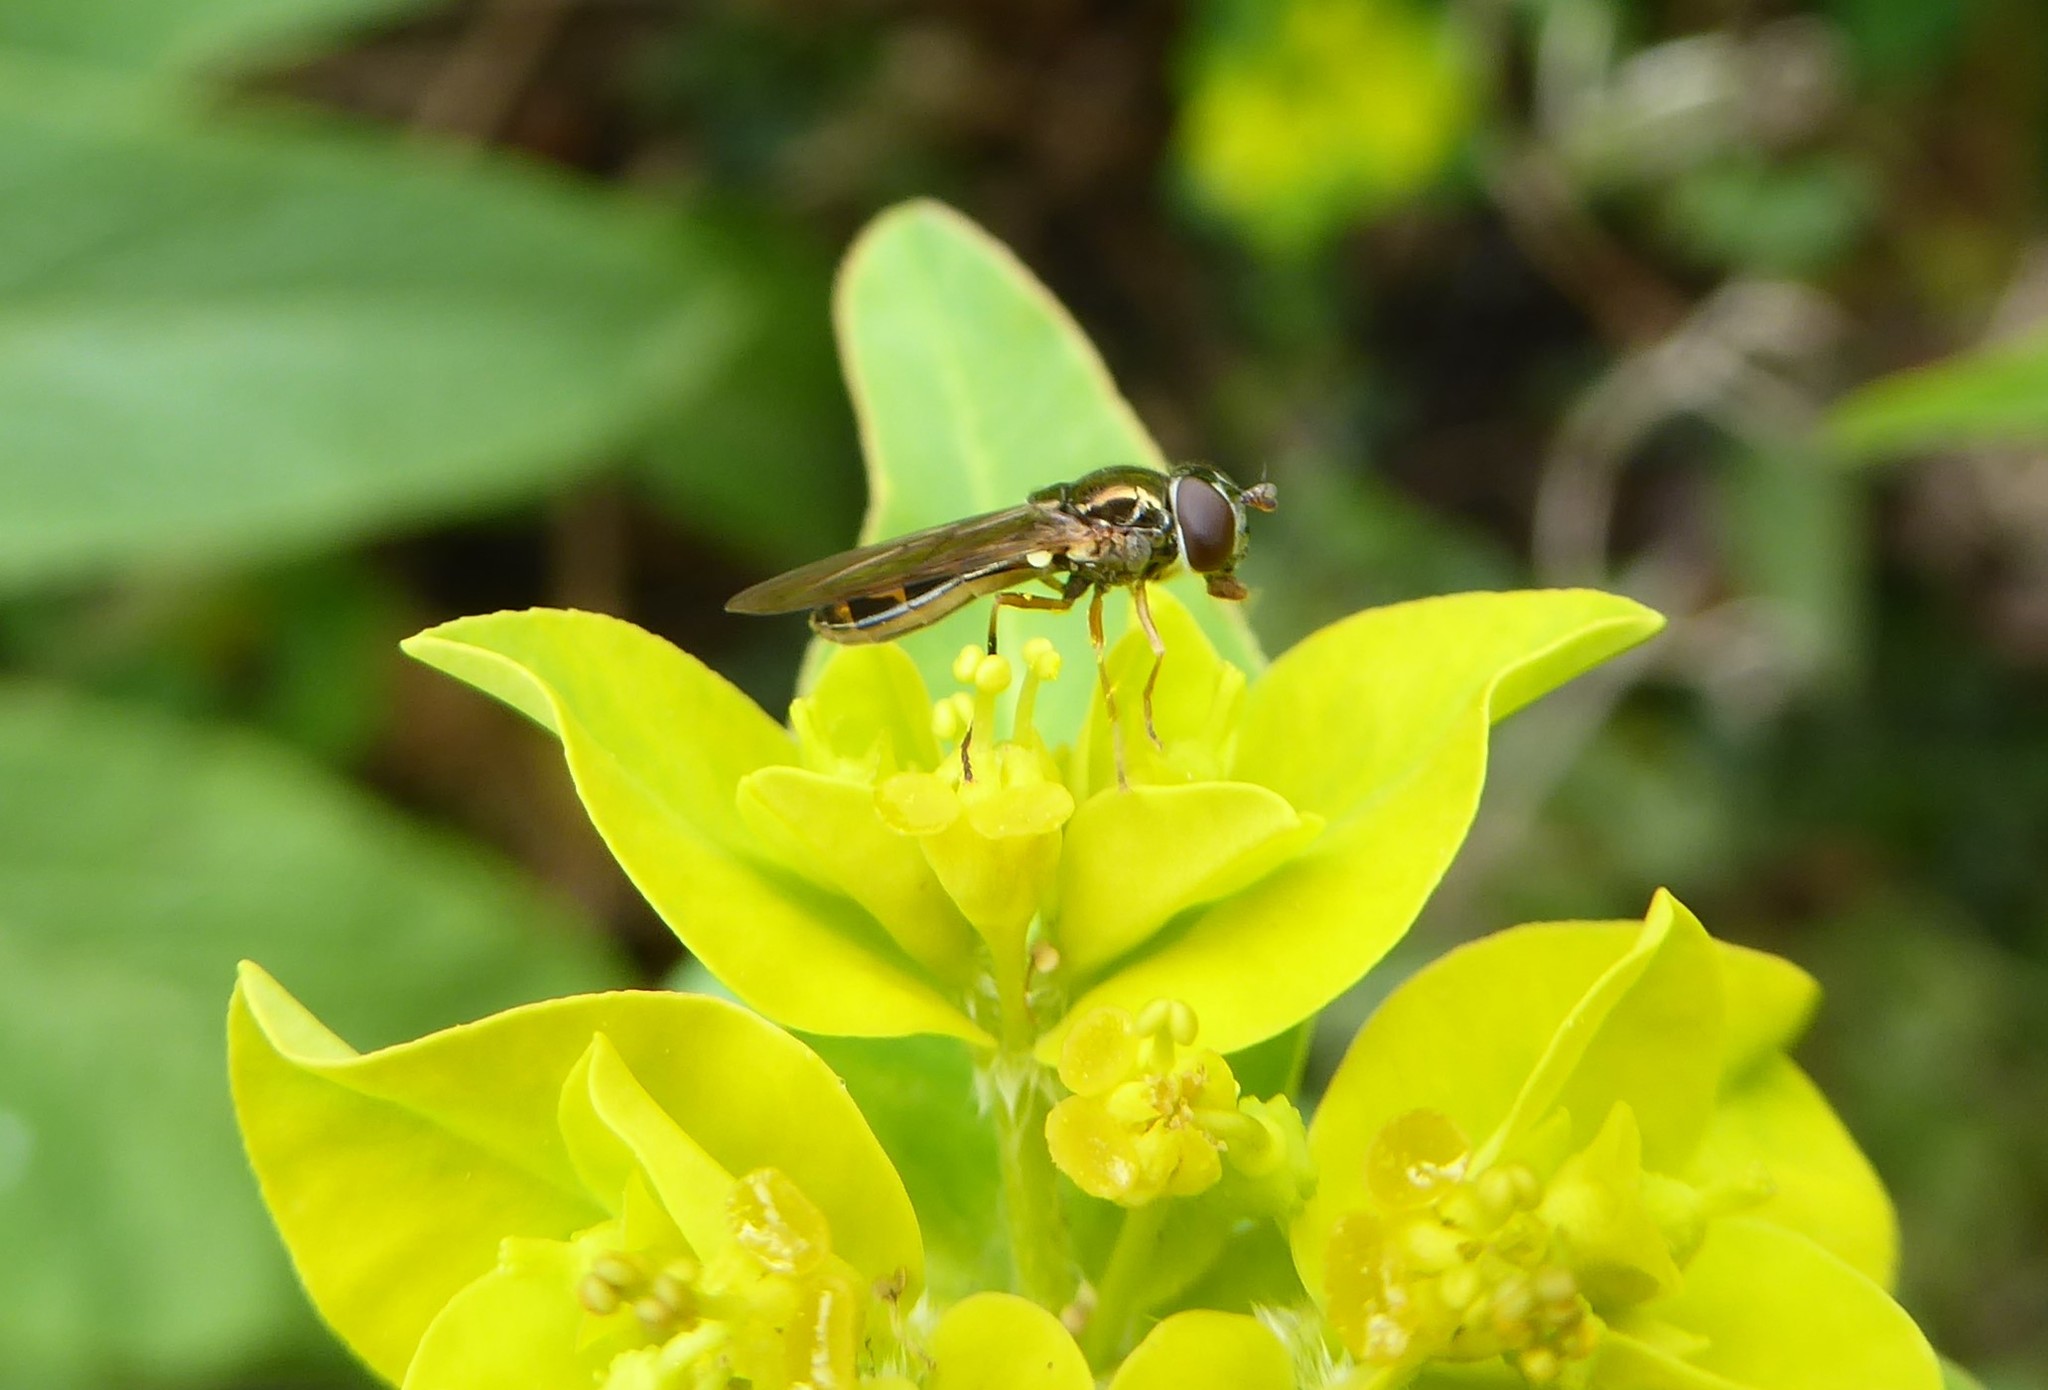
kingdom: Animalia
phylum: Arthropoda
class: Insecta
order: Diptera
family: Syrphidae
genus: Melanostoma
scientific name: Melanostoma fasciatum
